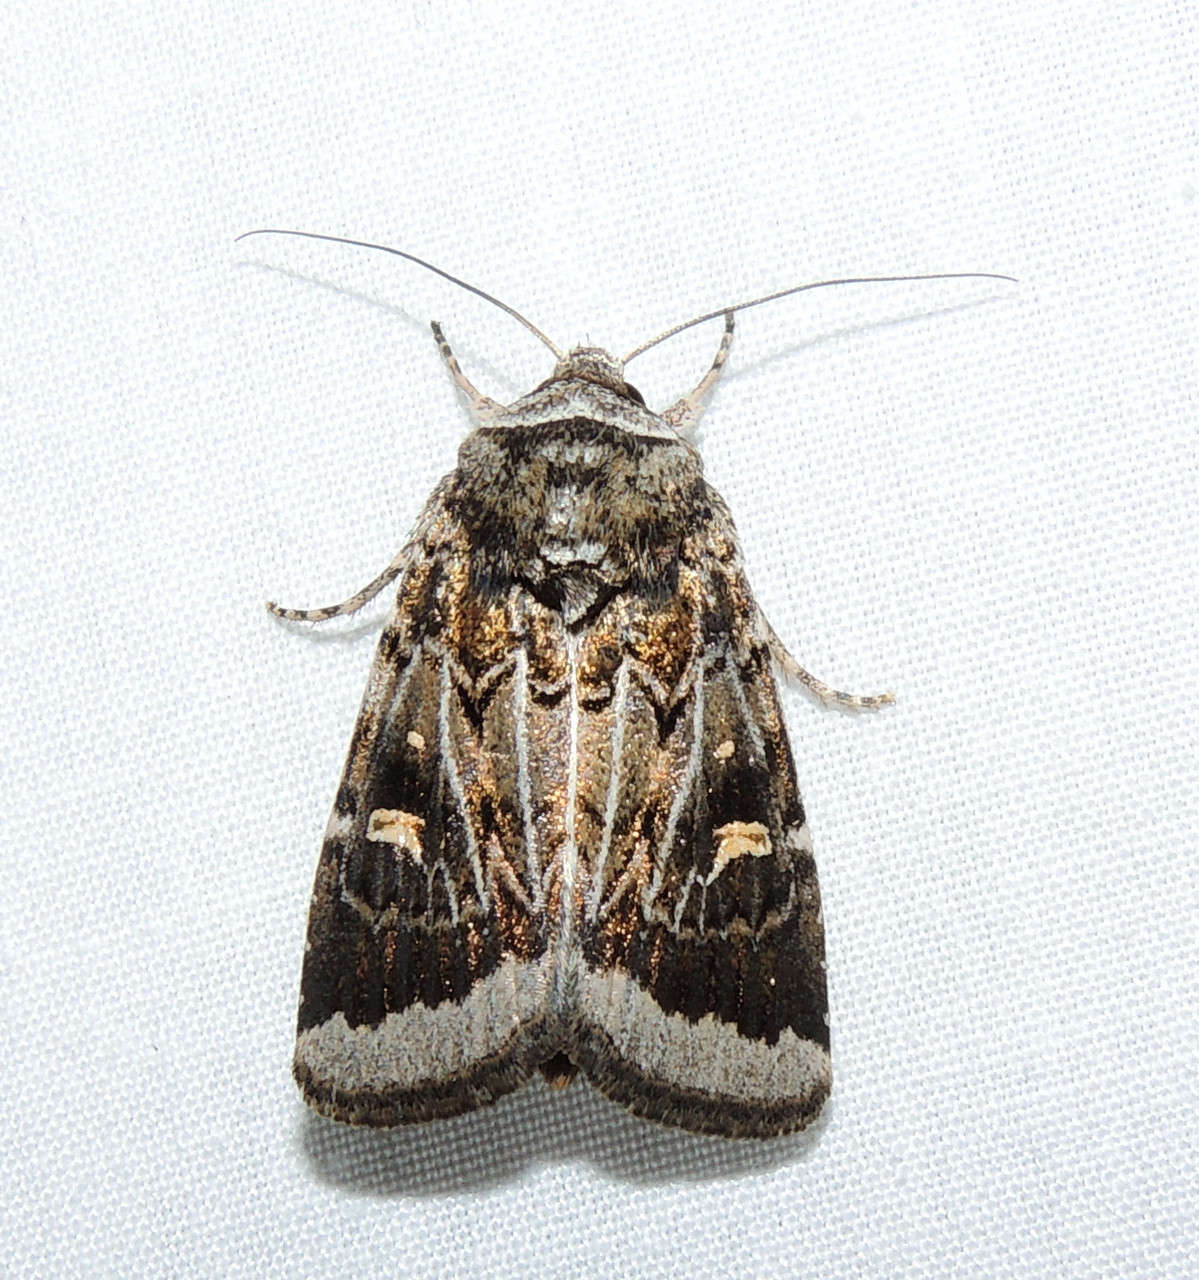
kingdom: Animalia
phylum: Arthropoda
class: Insecta
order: Lepidoptera
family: Noctuidae
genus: Proteuxoa
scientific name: Proteuxoa oxygona
